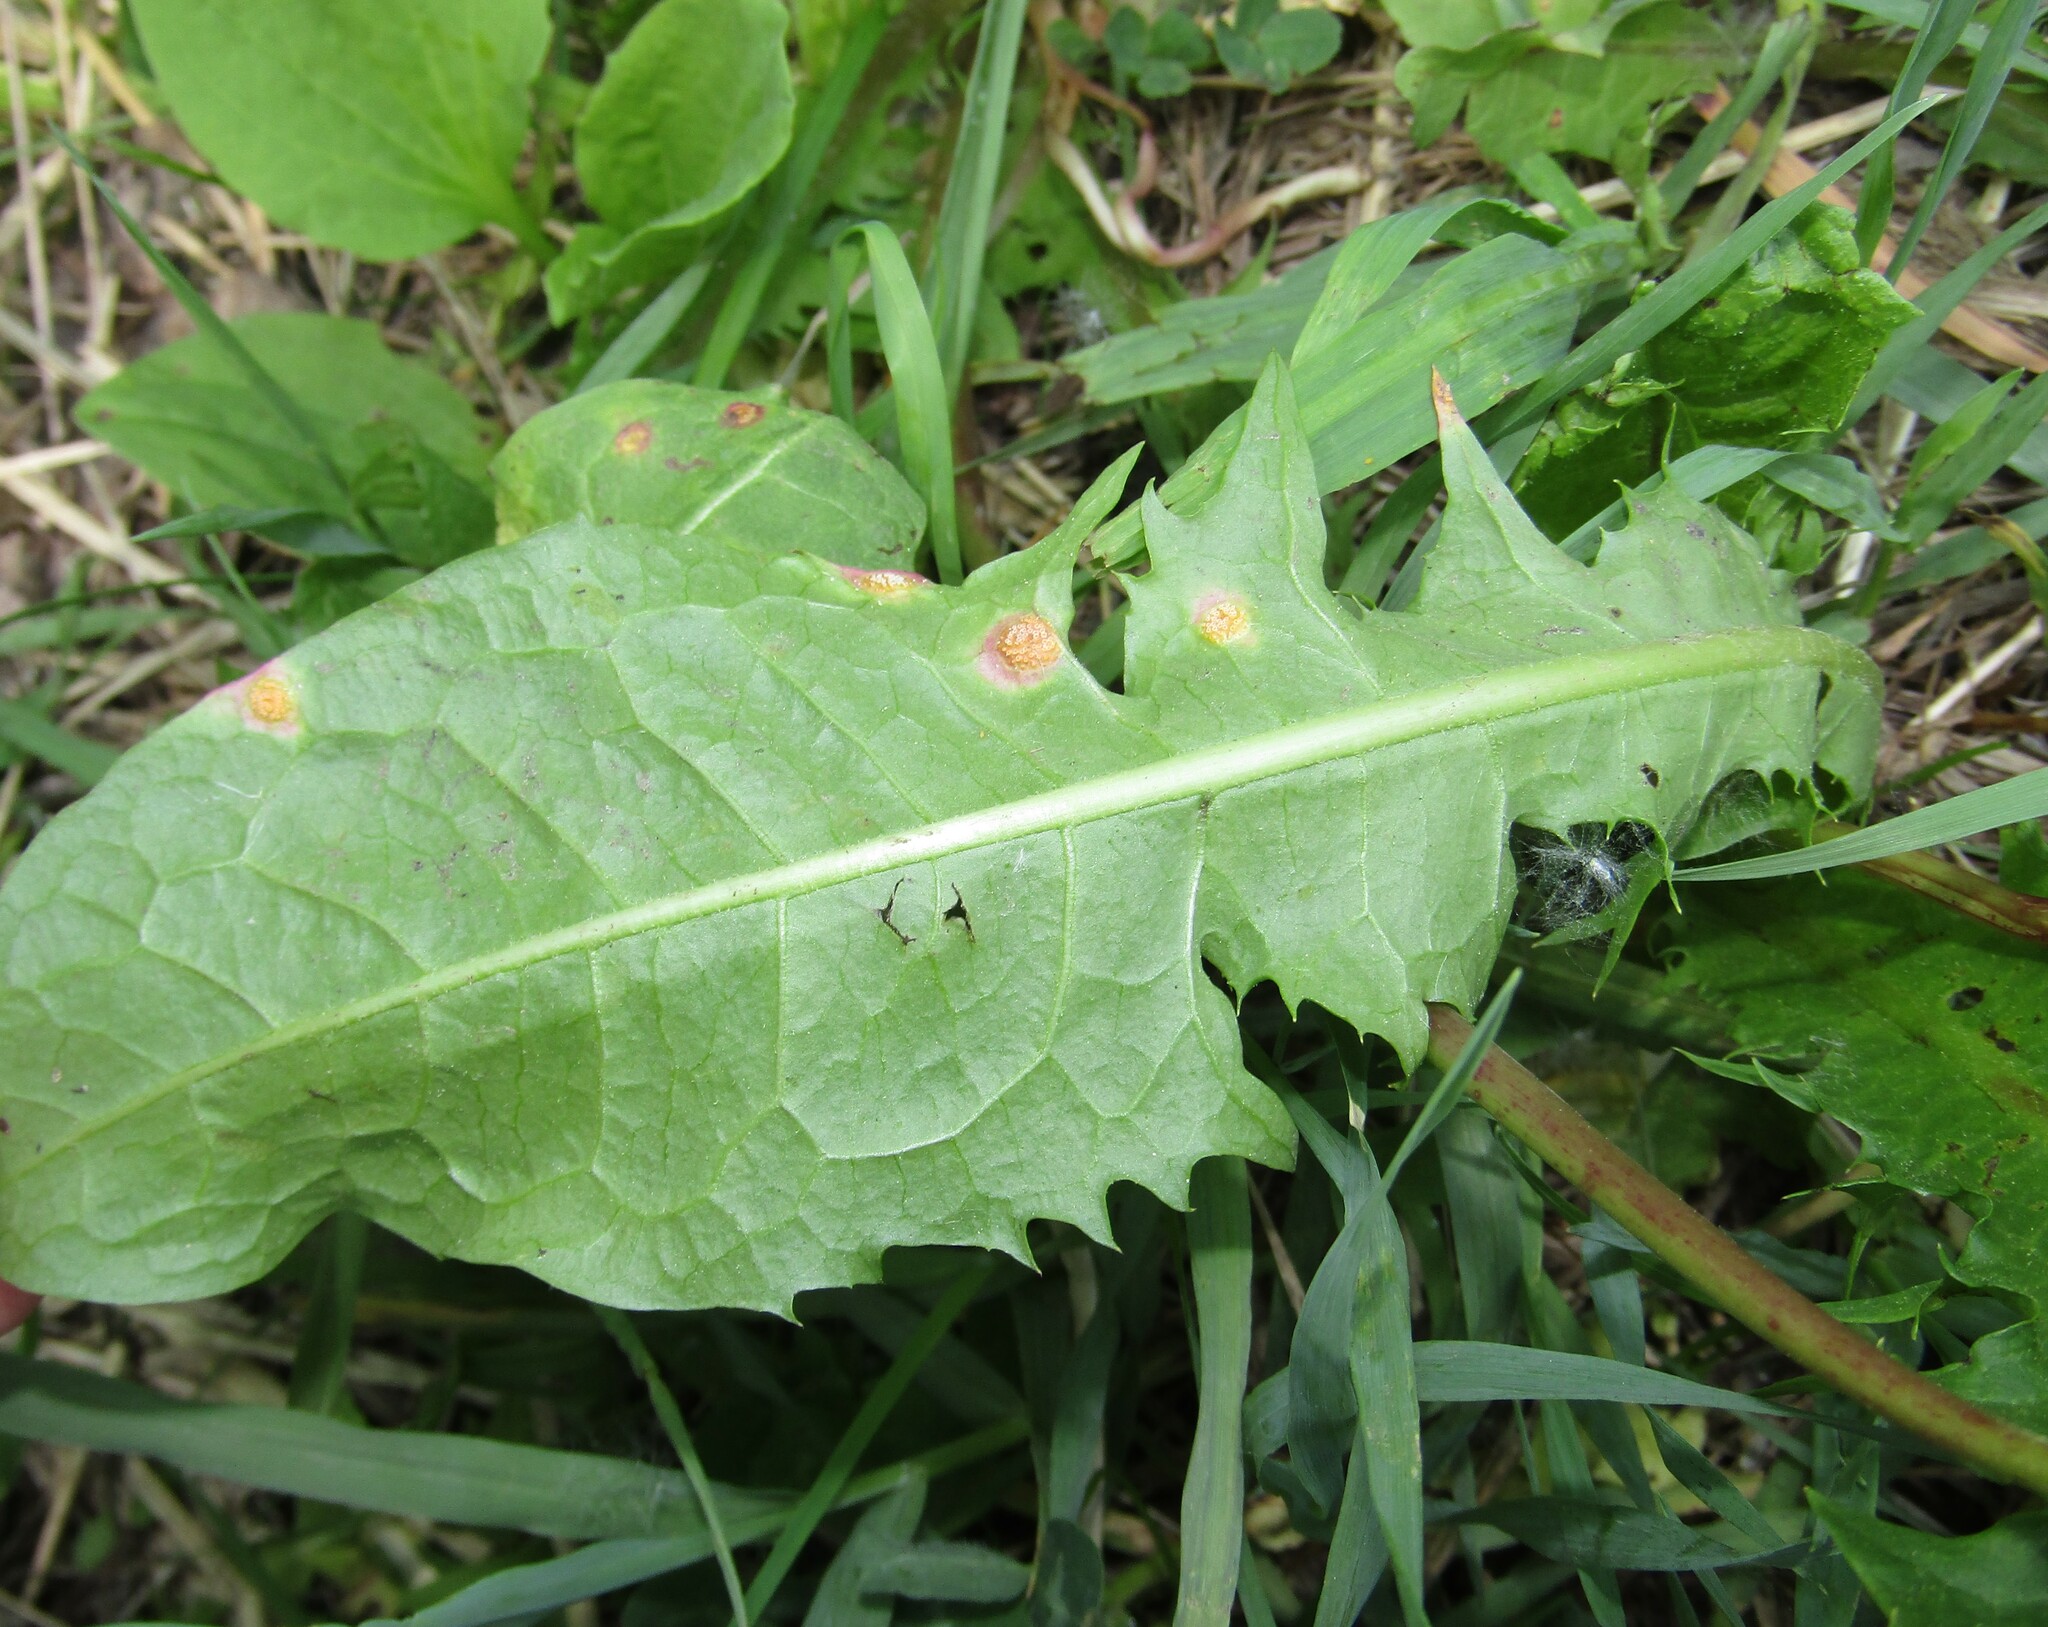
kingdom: Fungi
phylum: Basidiomycota
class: Pucciniomycetes
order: Pucciniales
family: Pucciniaceae
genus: Puccinia
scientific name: Puccinia dioicae
